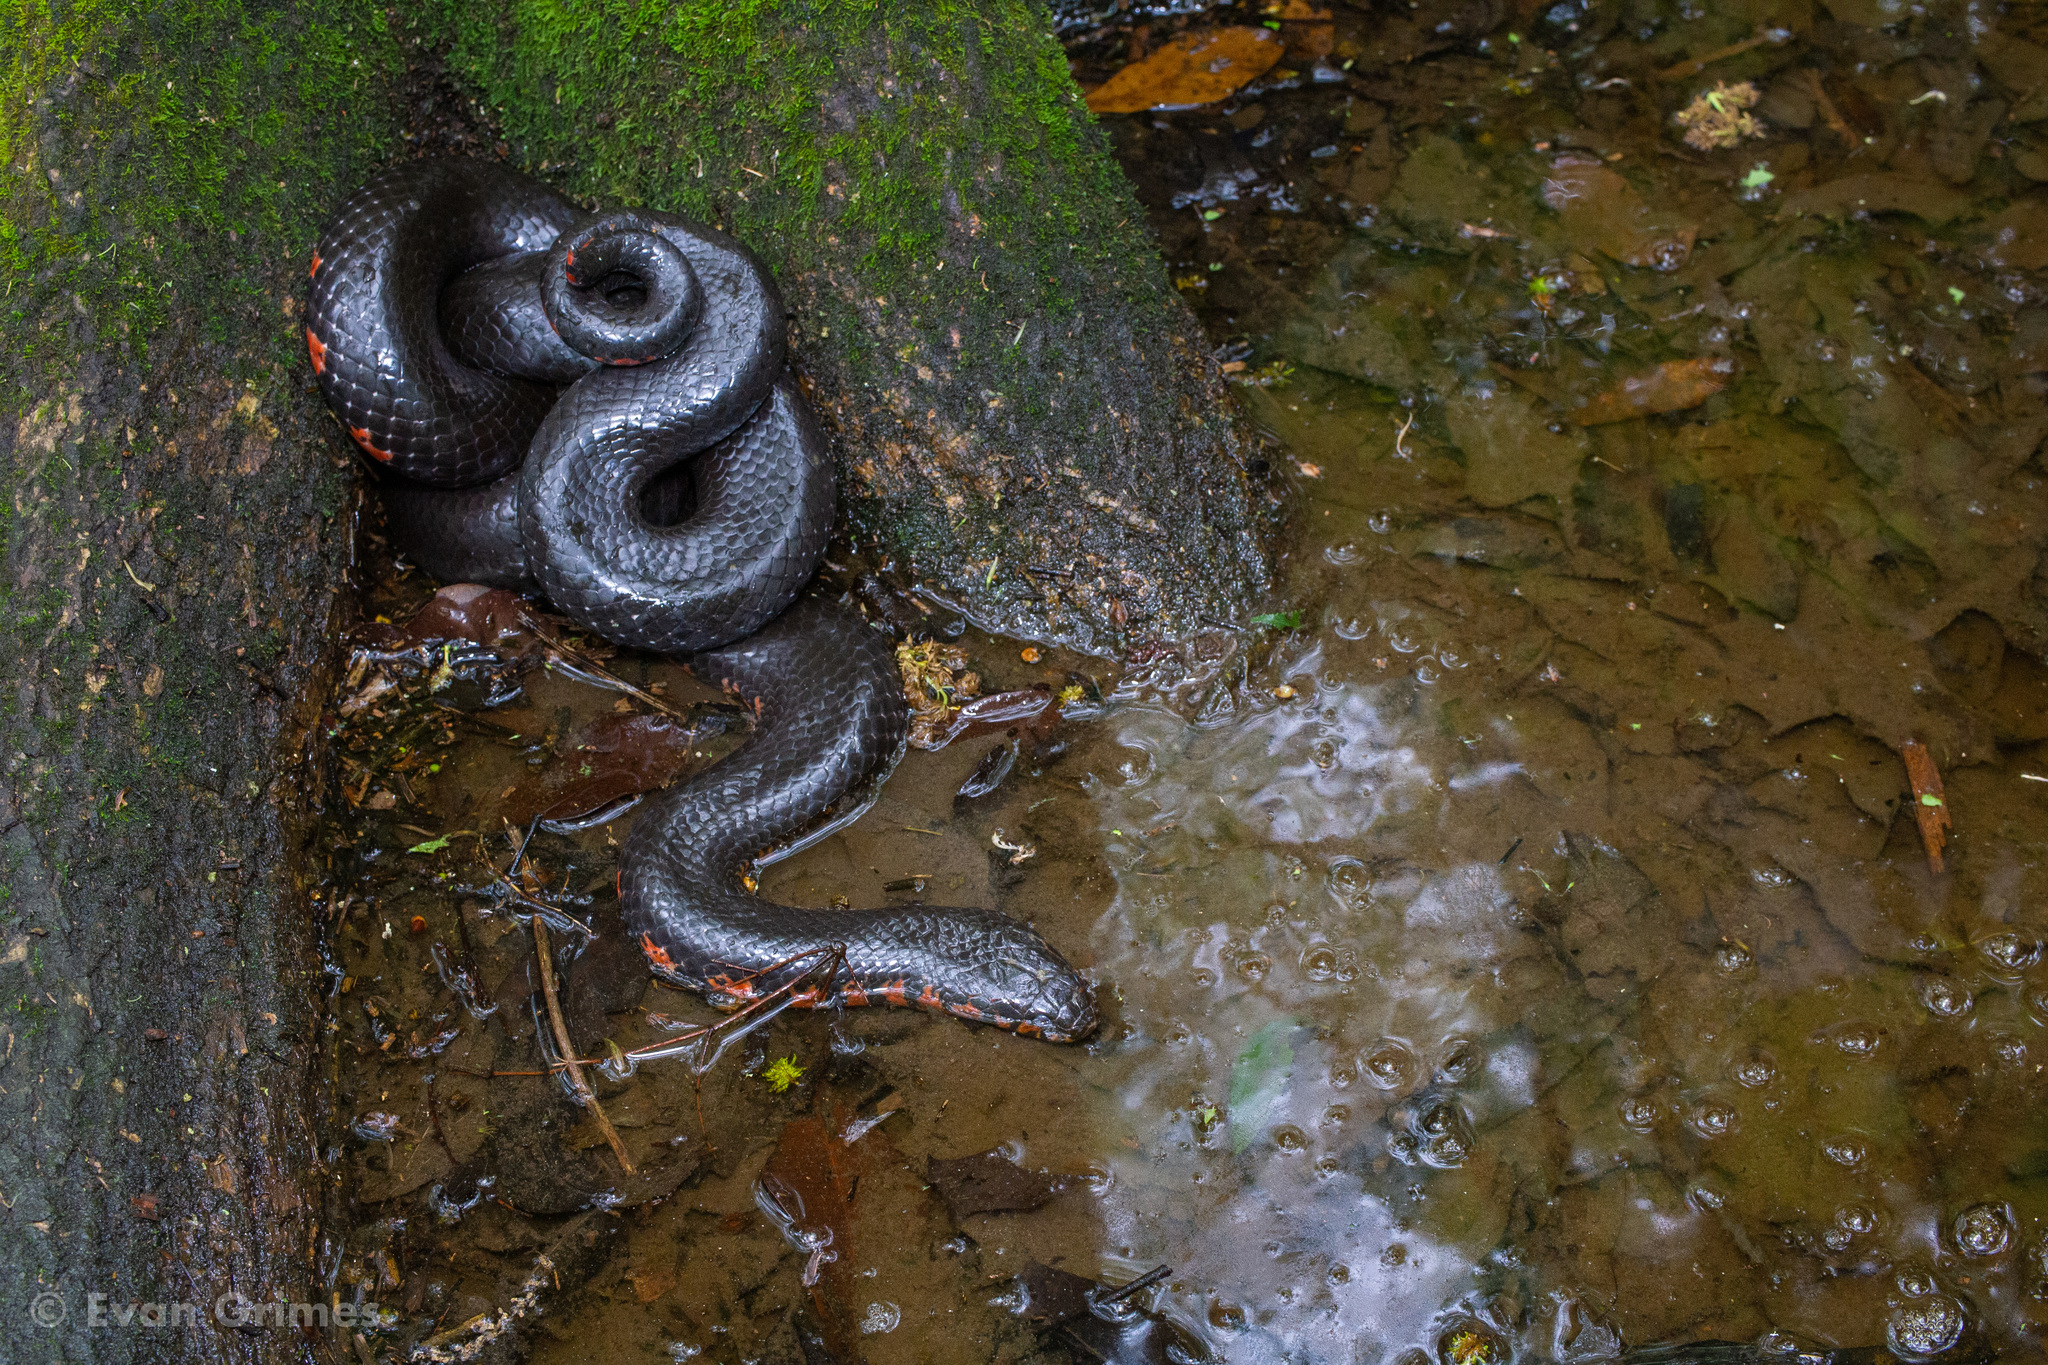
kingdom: Animalia
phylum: Chordata
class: Squamata
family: Colubridae
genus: Farancia
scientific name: Farancia abacura
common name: Mud snake
